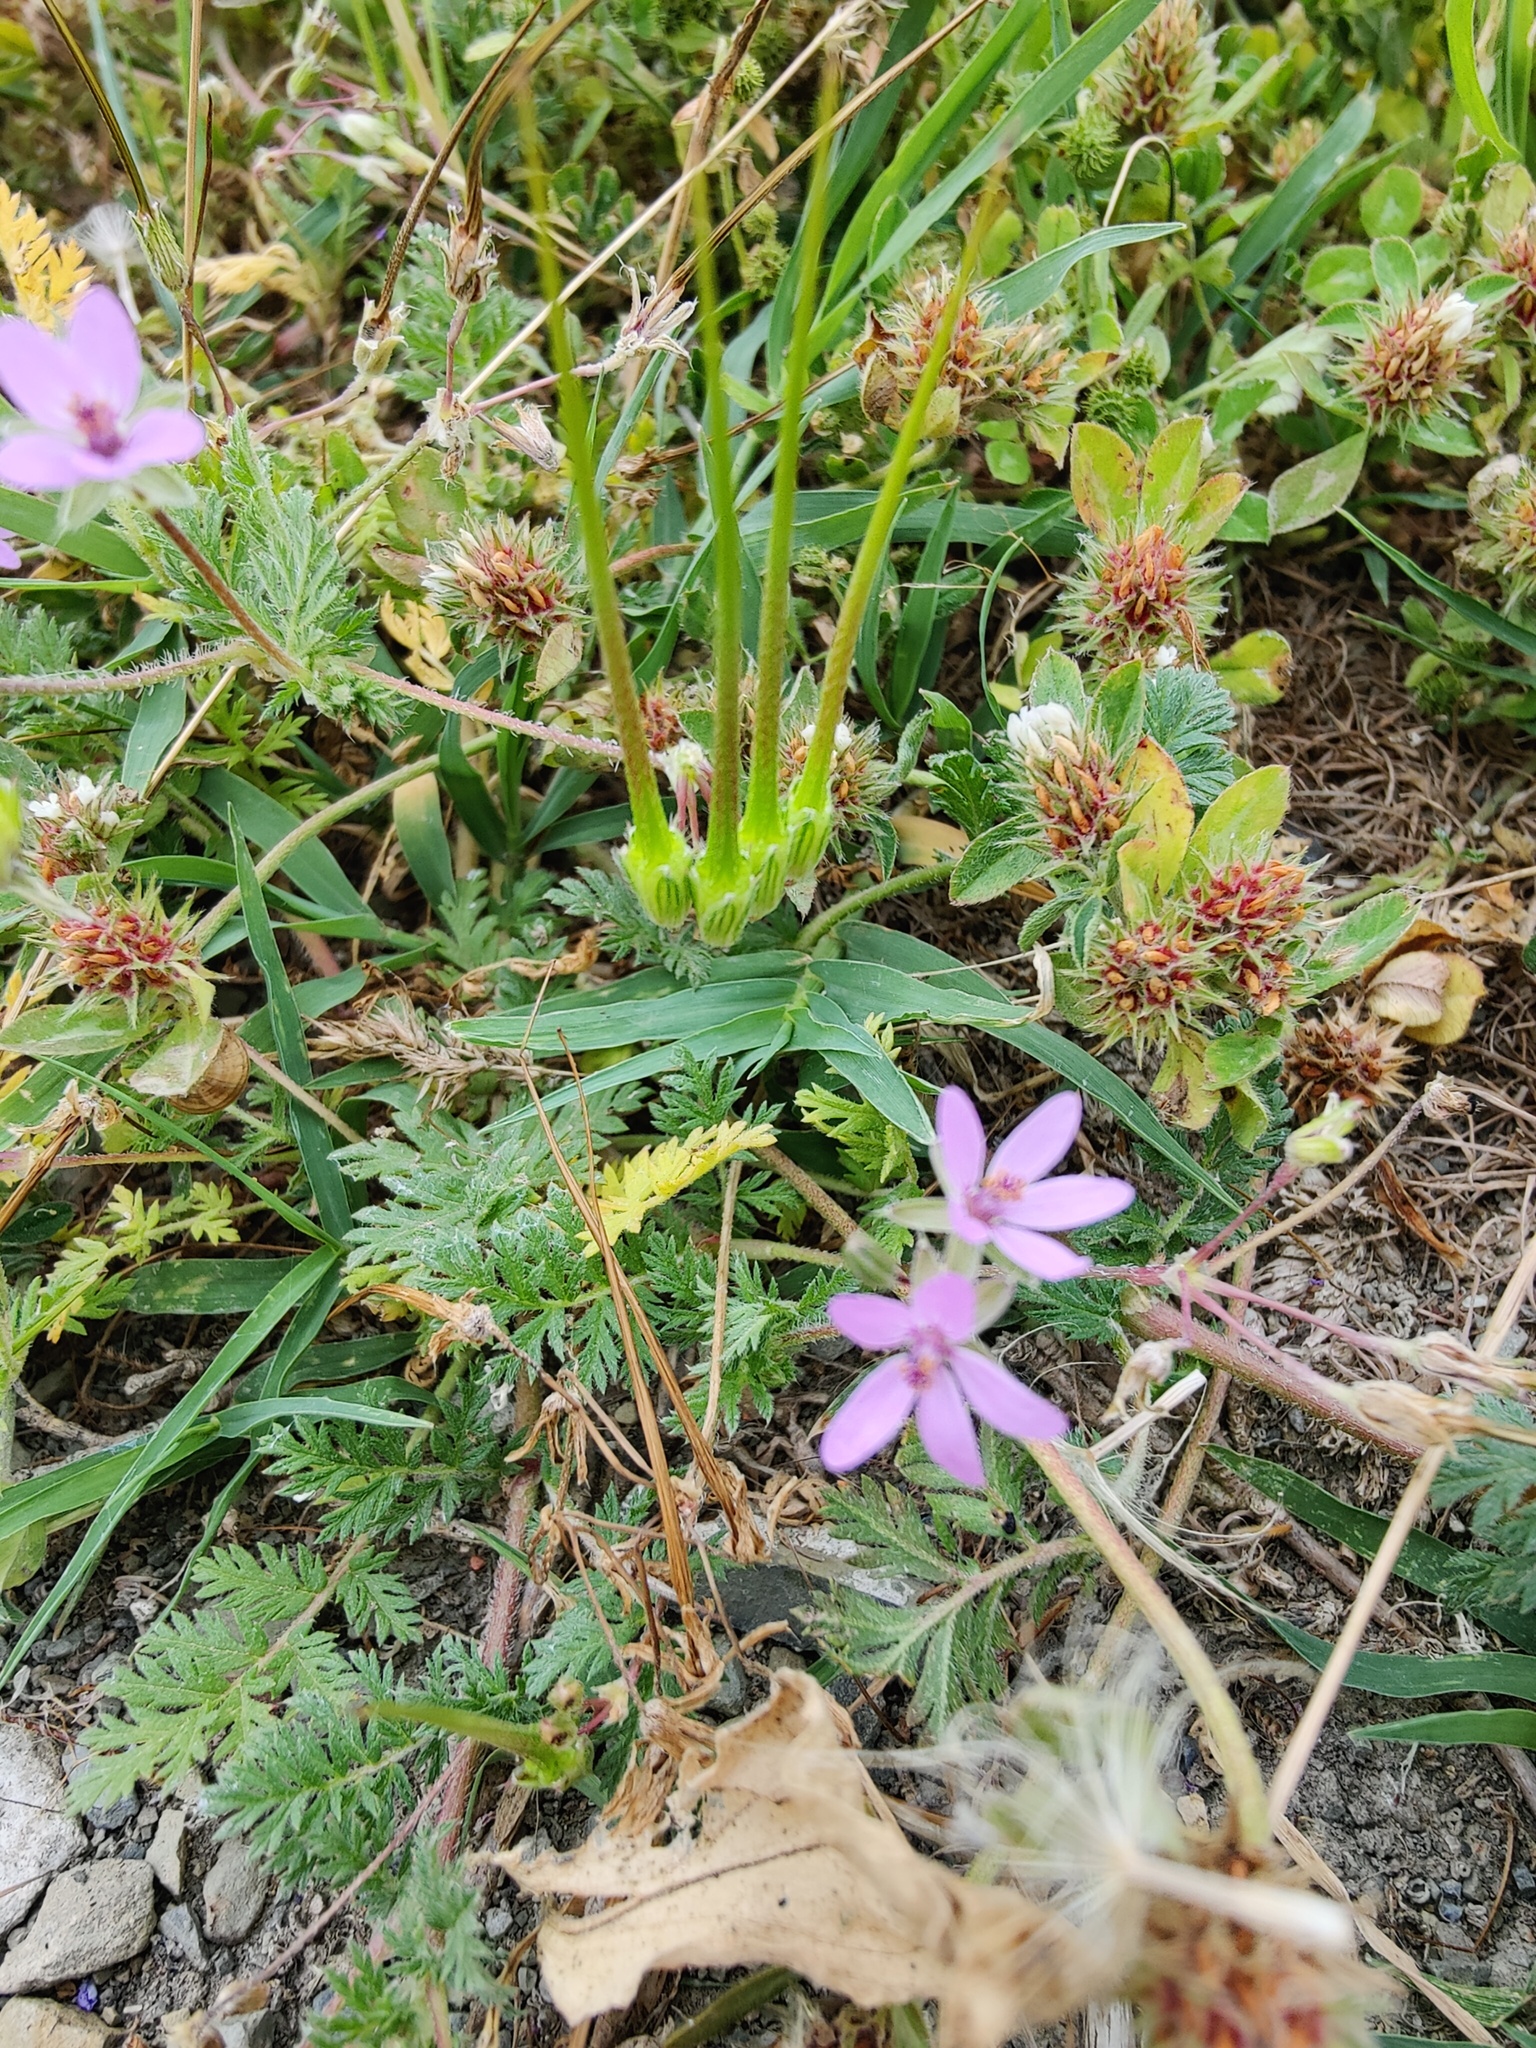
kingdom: Plantae
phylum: Tracheophyta
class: Magnoliopsida
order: Geraniales
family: Geraniaceae
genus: Erodium
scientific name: Erodium cicutarium
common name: Common stork's-bill
